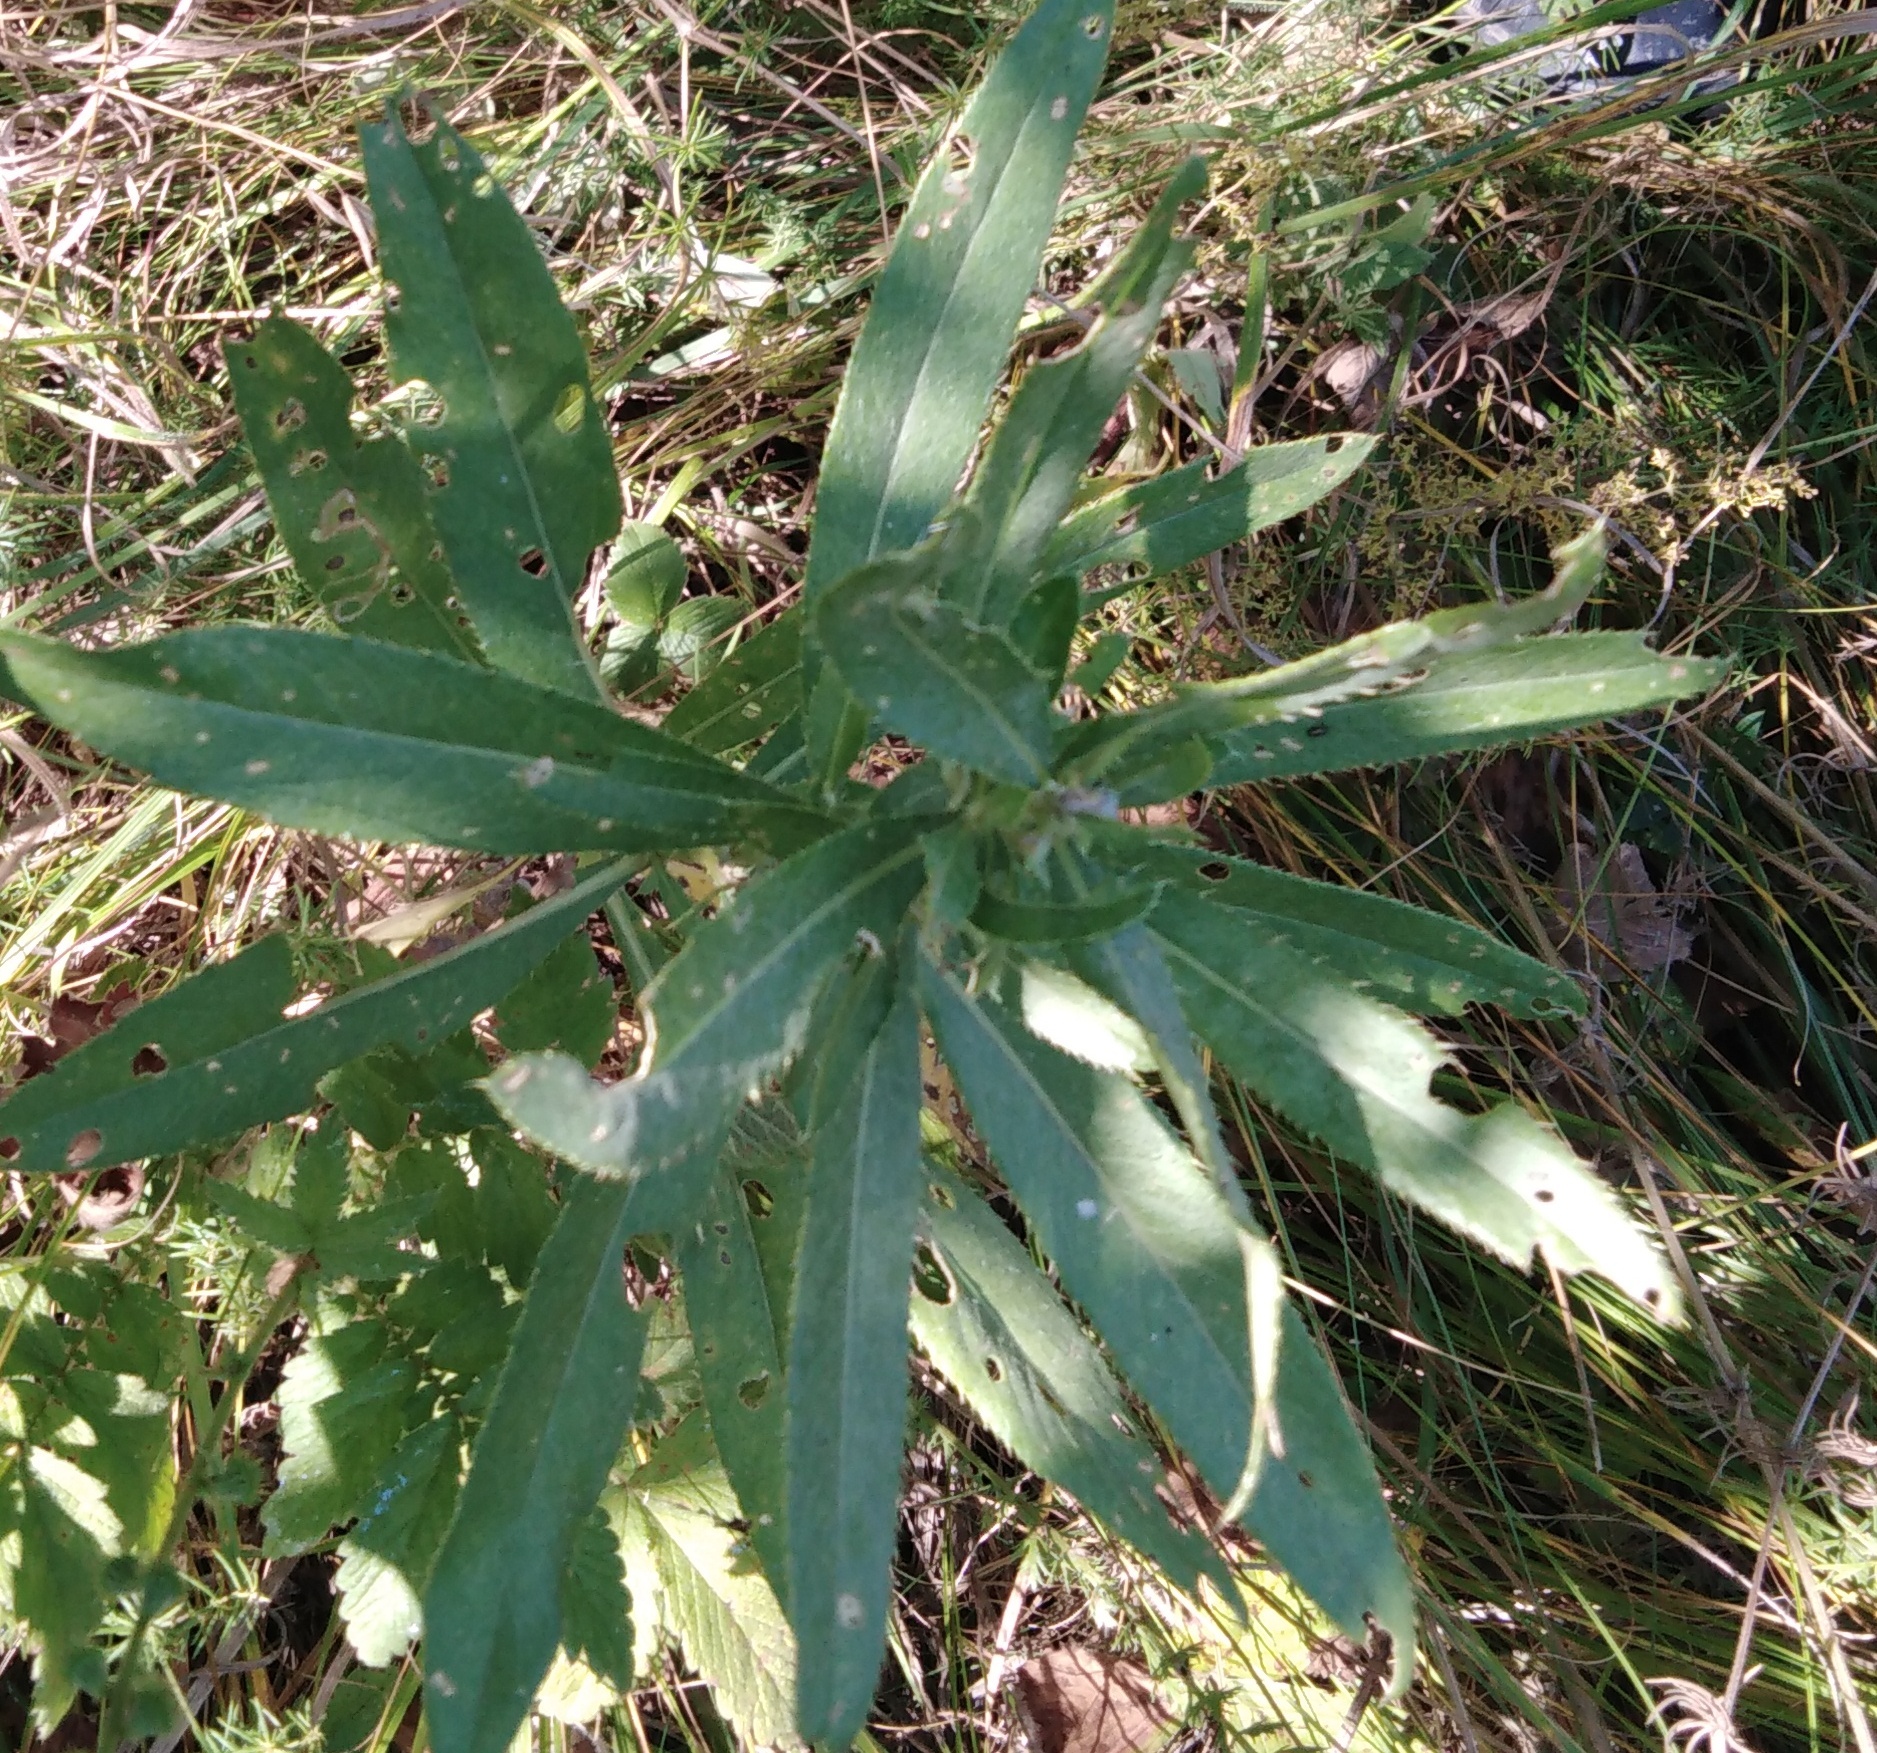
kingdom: Plantae
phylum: Tracheophyta
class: Magnoliopsida
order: Asterales
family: Asteraceae
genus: Cirsium
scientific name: Cirsium arvense
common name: Creeping thistle
